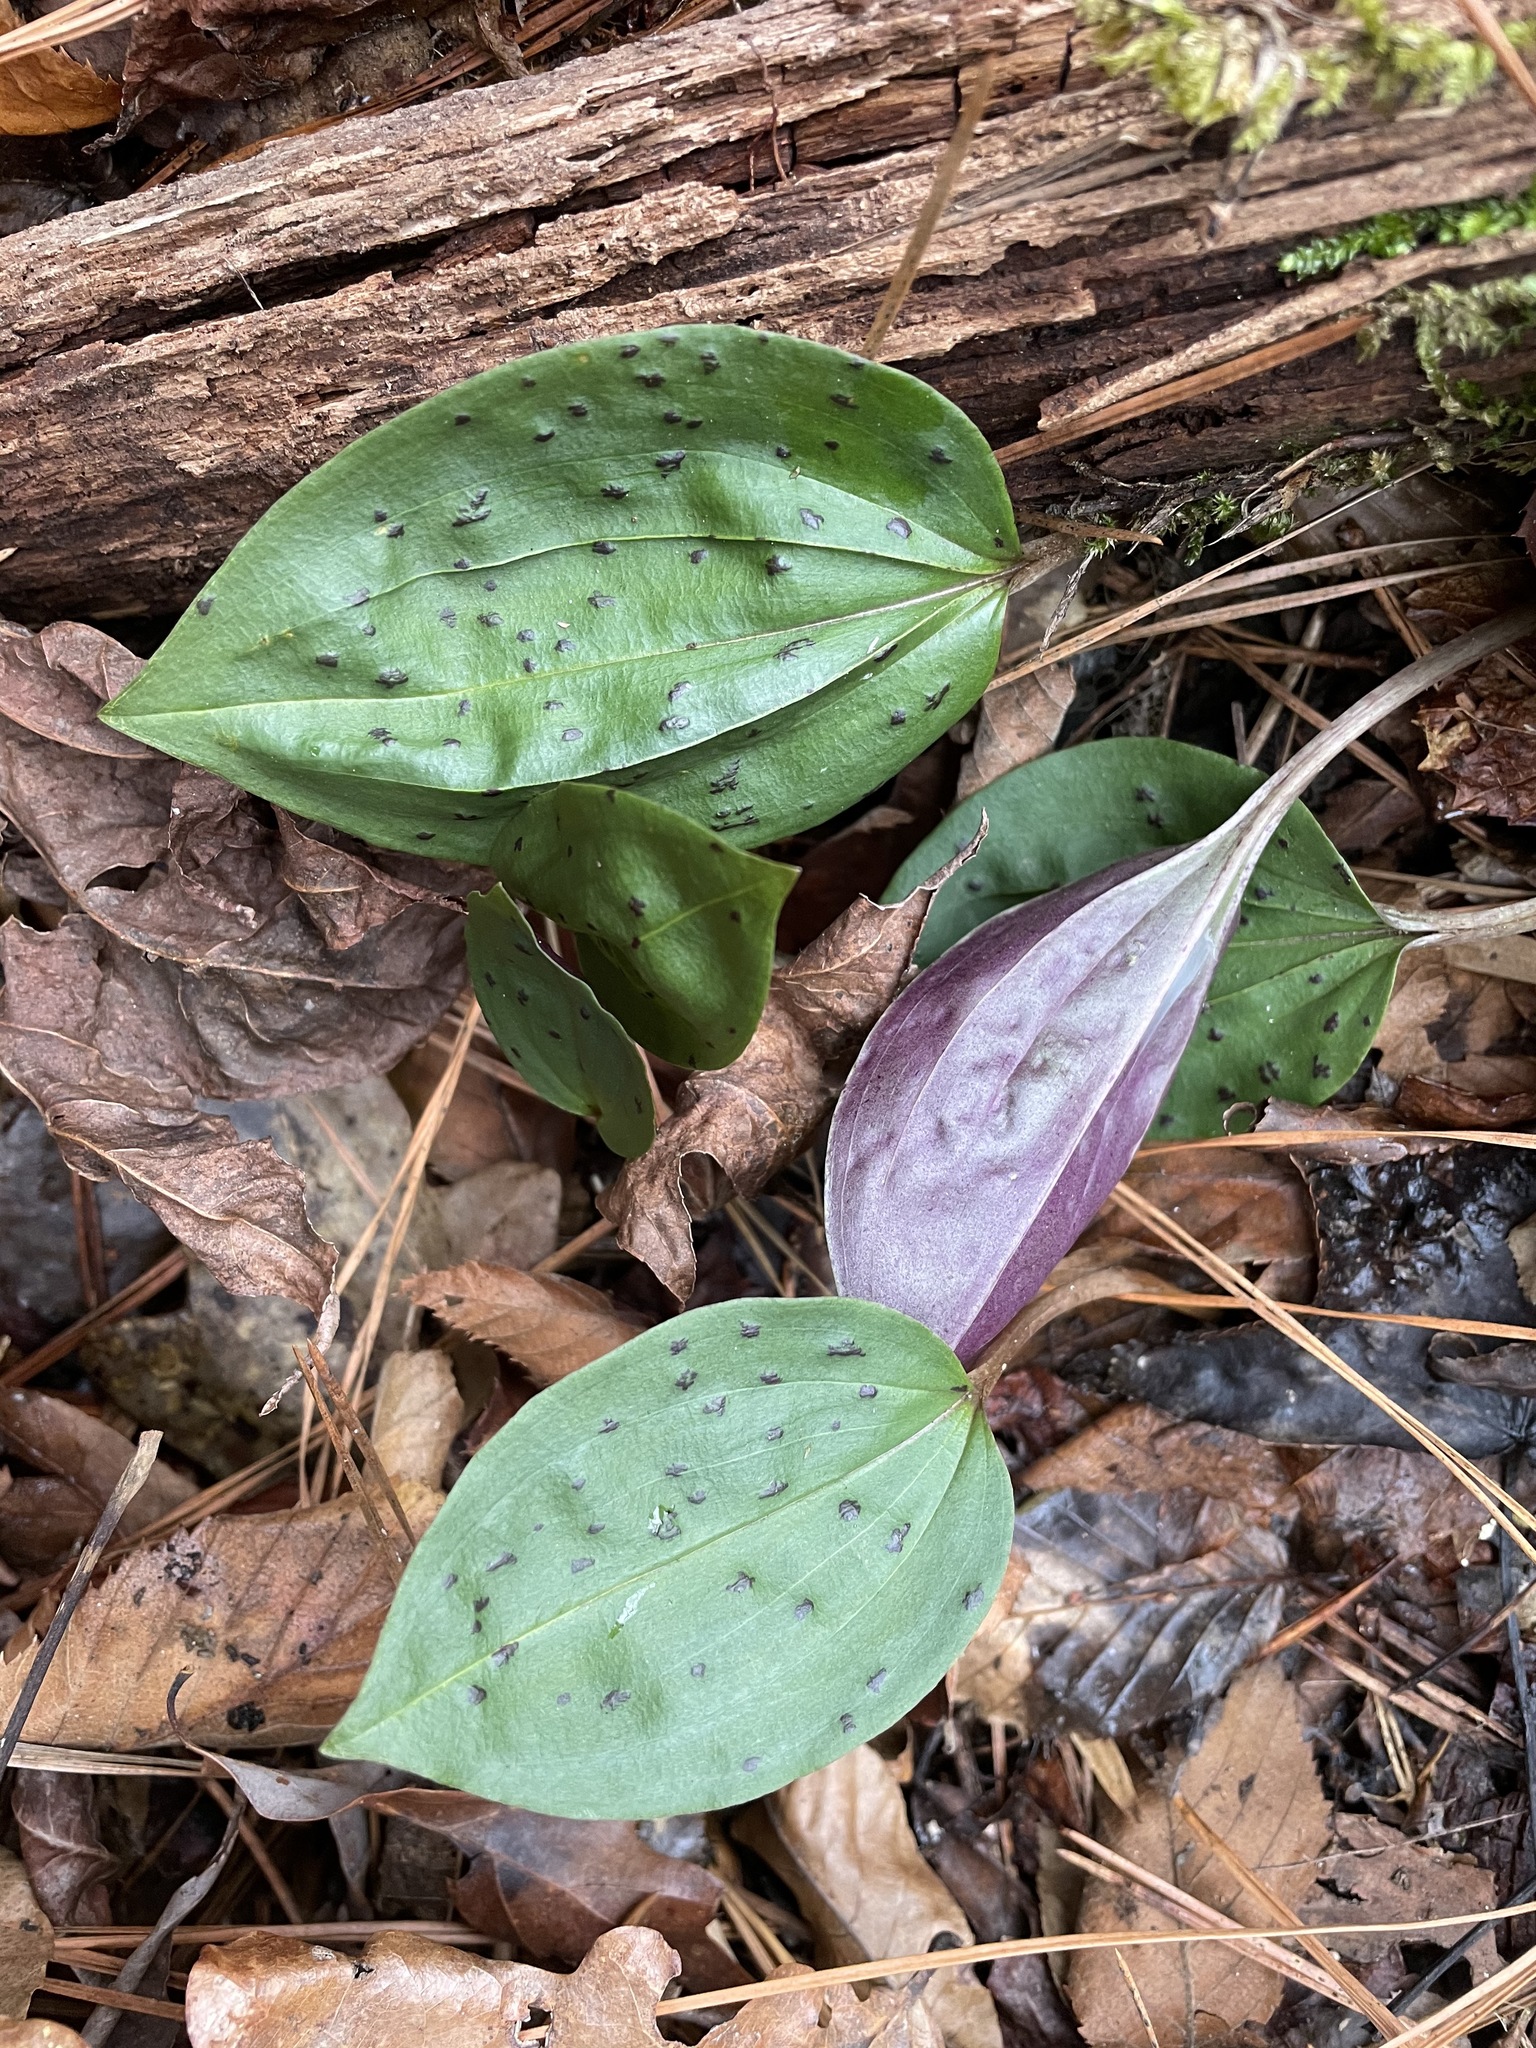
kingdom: Plantae
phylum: Tracheophyta
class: Liliopsida
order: Asparagales
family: Orchidaceae
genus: Tipularia
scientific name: Tipularia discolor
